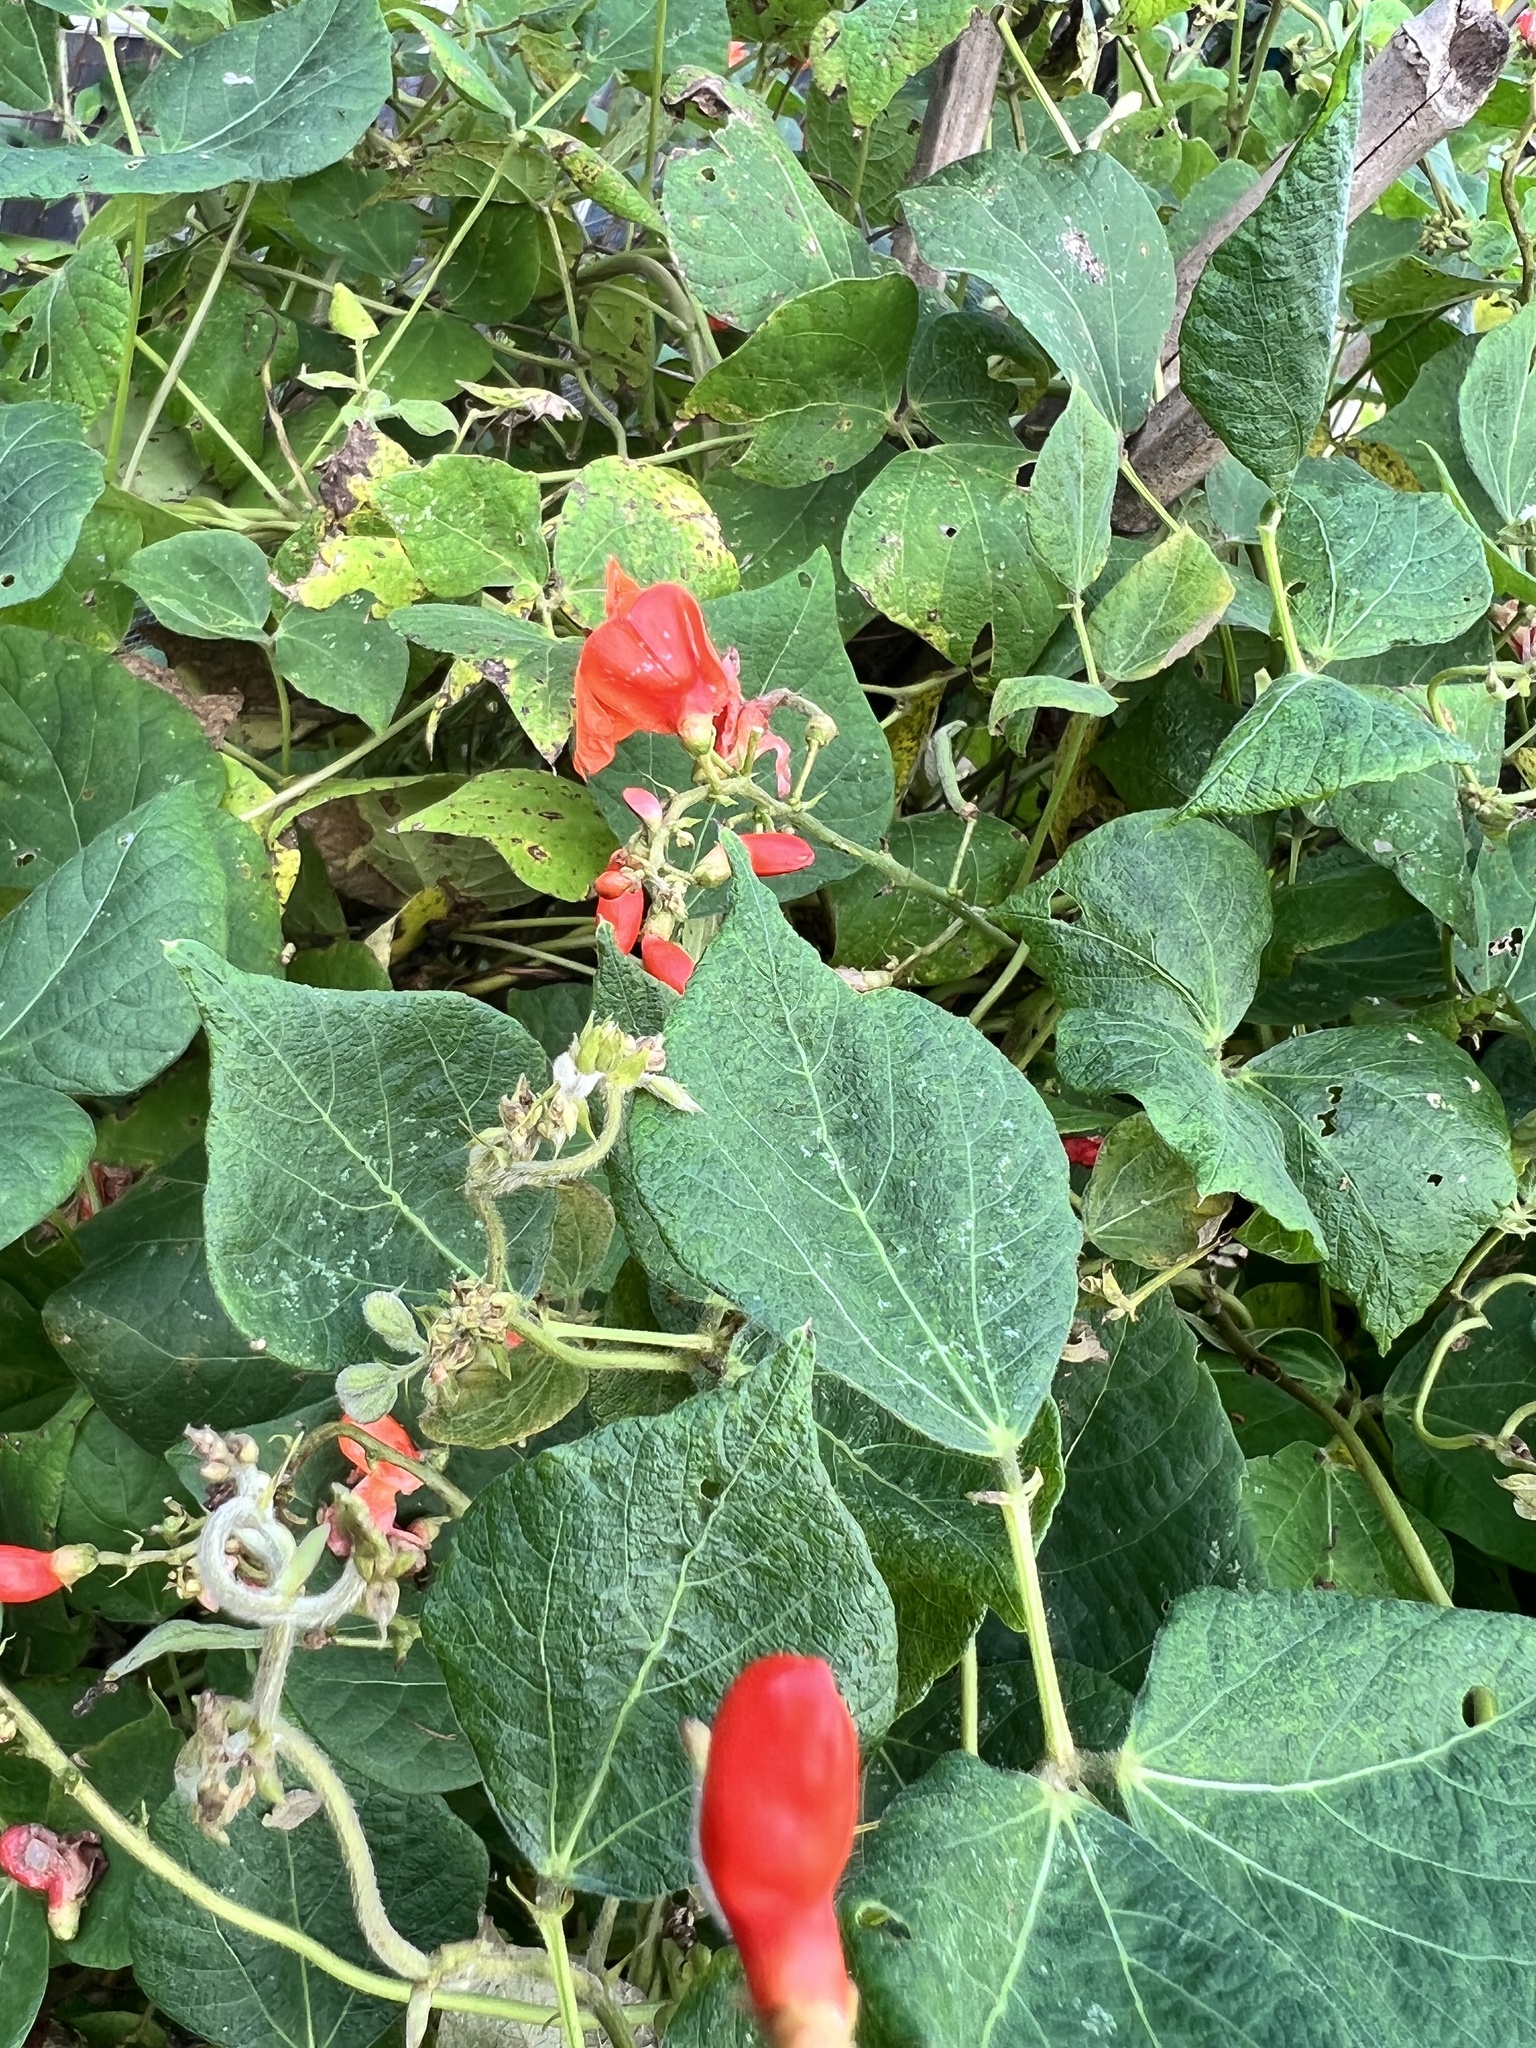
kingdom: Plantae
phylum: Tracheophyta
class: Magnoliopsida
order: Fabales
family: Fabaceae
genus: Phaseolus
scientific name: Phaseolus coccineus
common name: Runner bean
